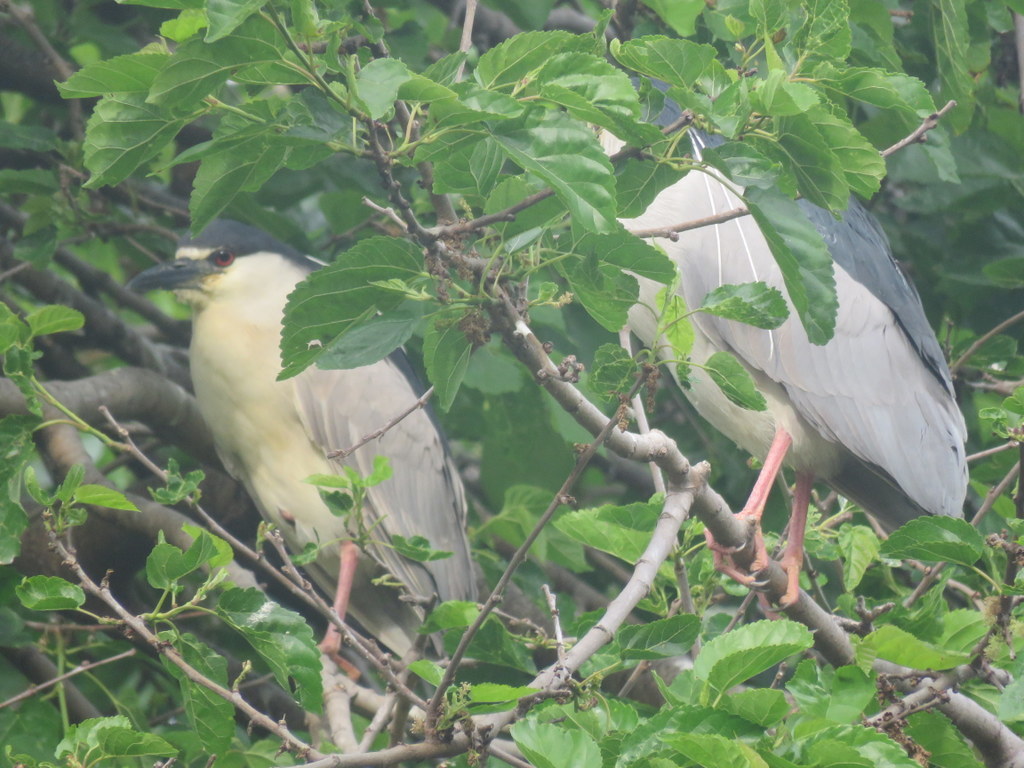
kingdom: Animalia
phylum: Chordata
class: Aves
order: Pelecaniformes
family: Ardeidae
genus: Nycticorax
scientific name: Nycticorax nycticorax
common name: Black-crowned night heron
